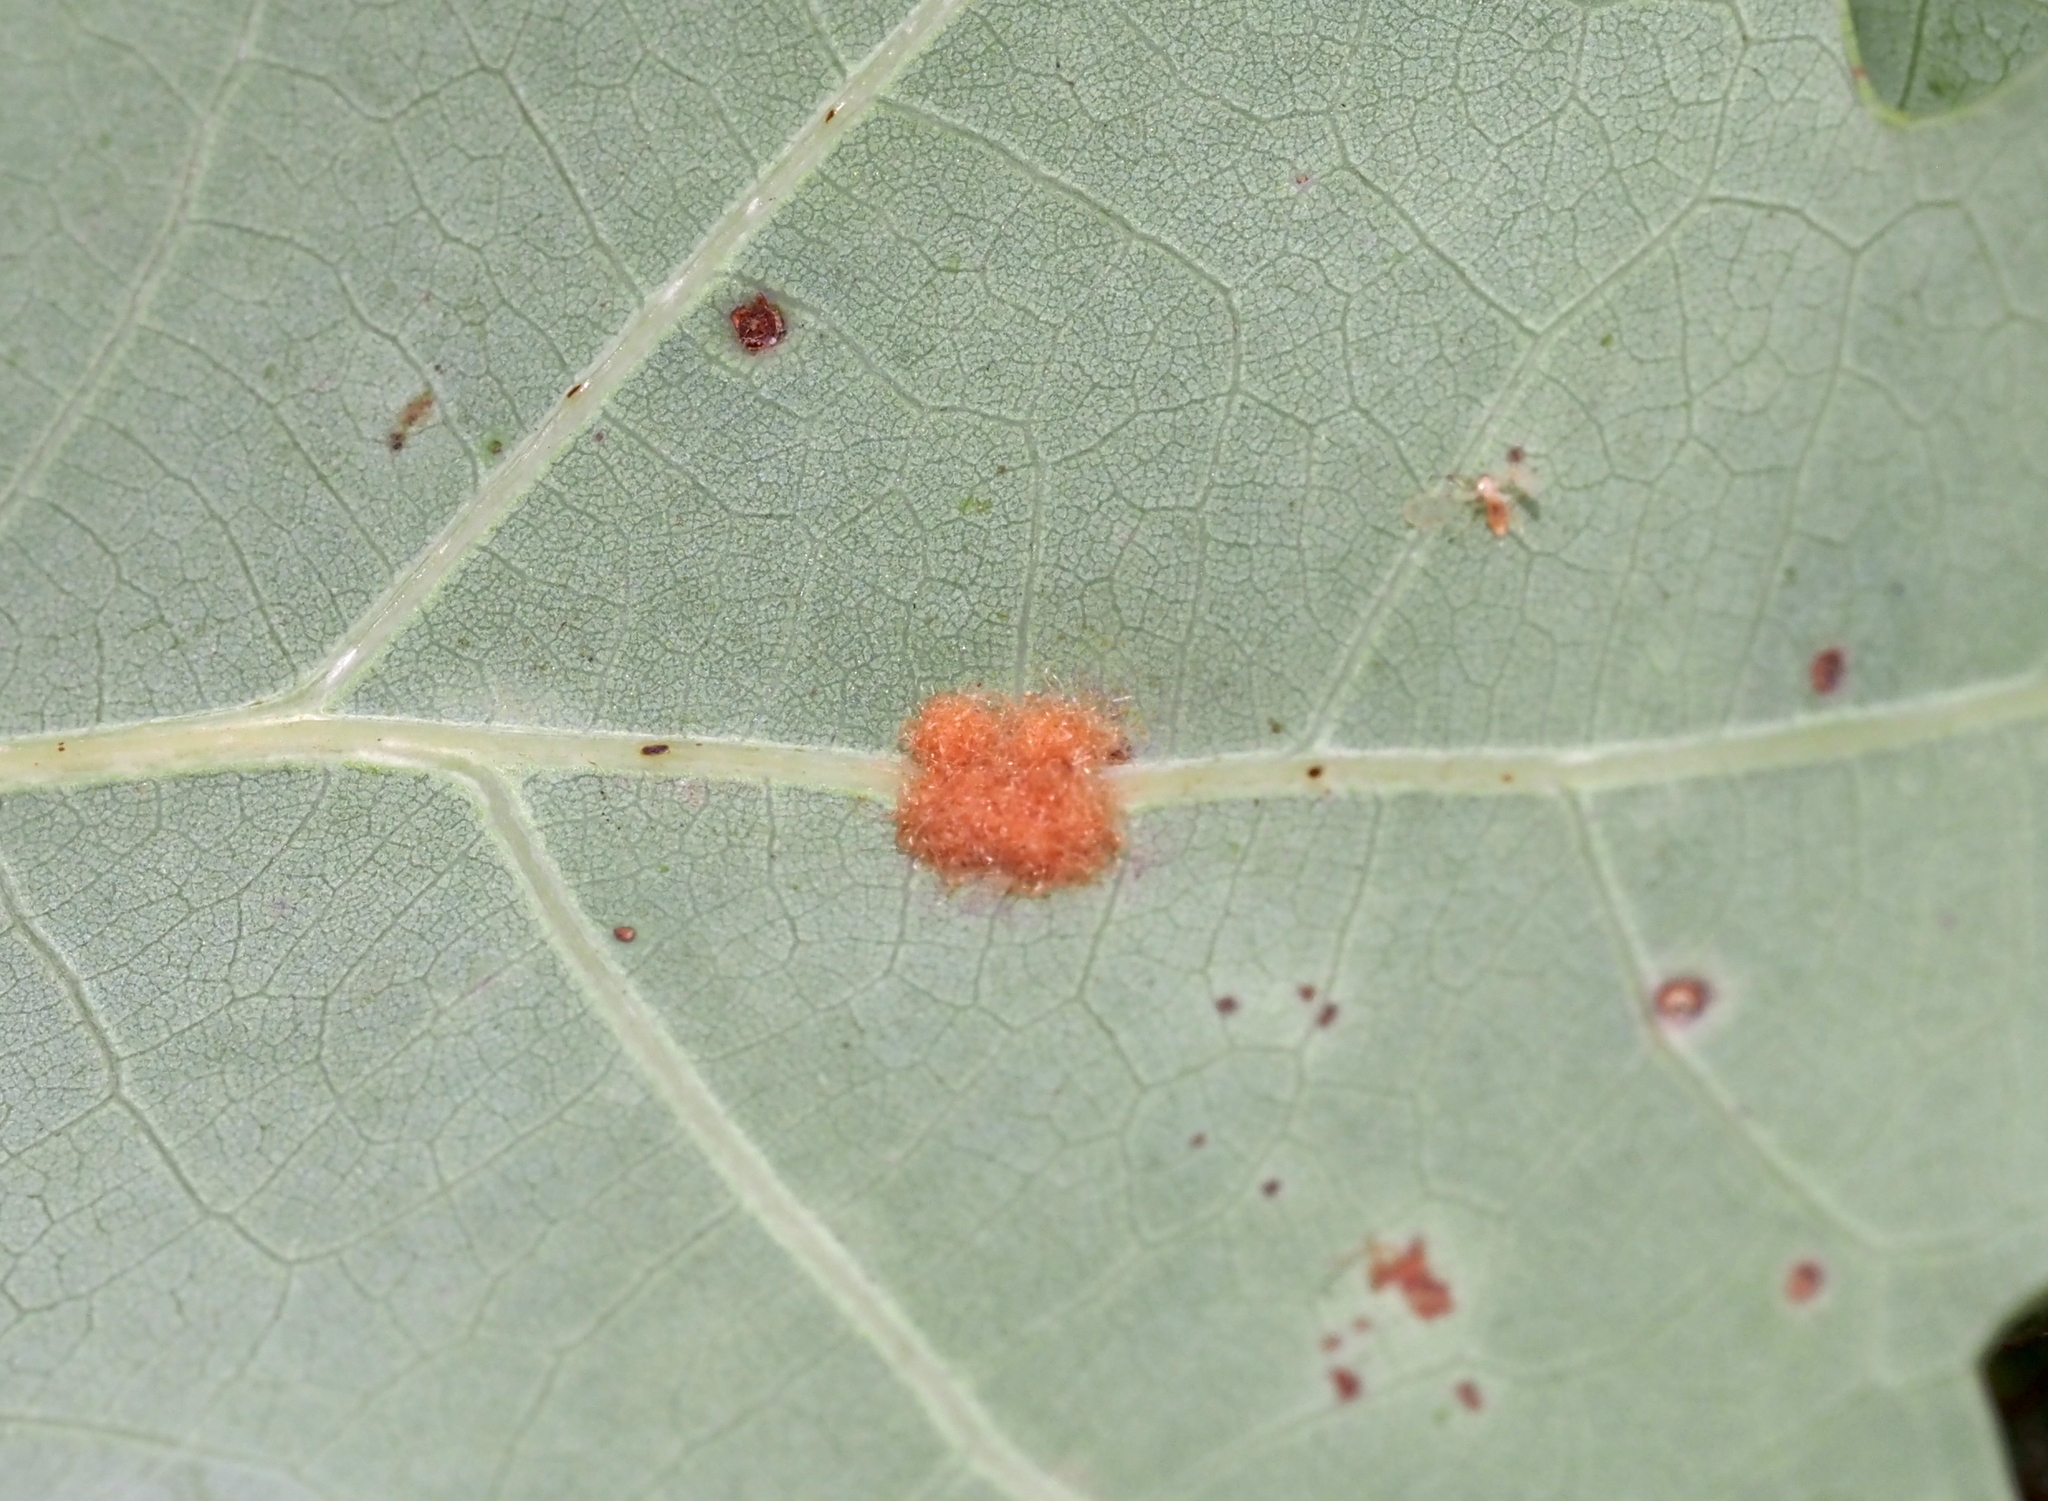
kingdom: Animalia
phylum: Arthropoda
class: Insecta
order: Hymenoptera
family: Cynipidae
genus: Neuroterus
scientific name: Neuroterus quercusverrucarum
